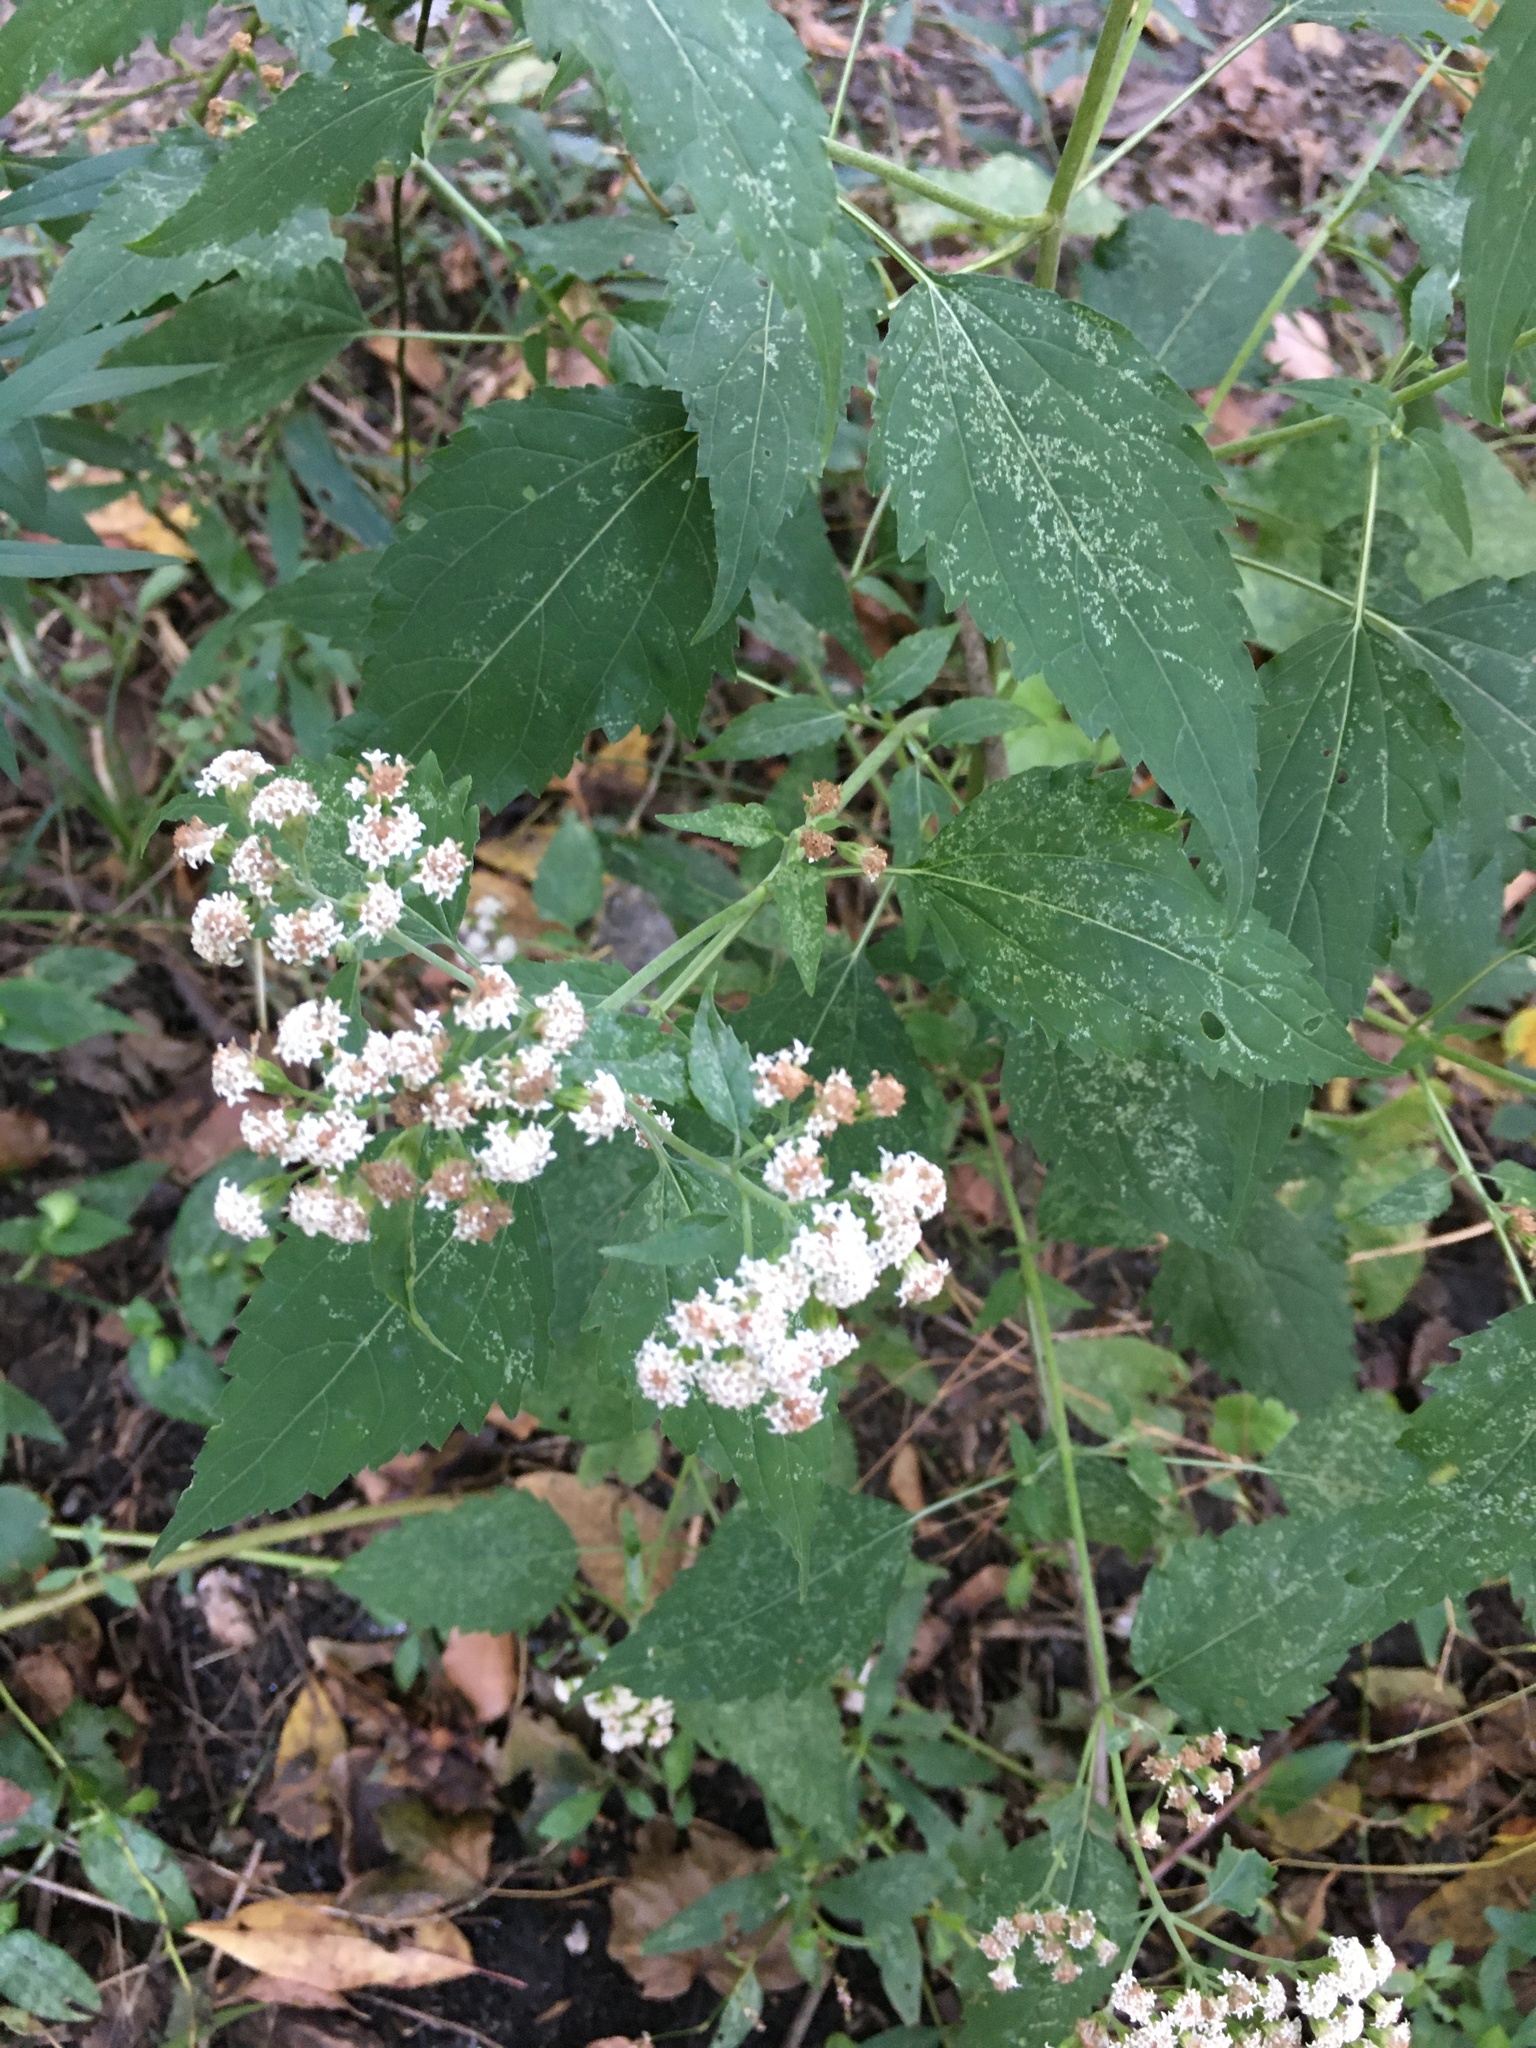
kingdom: Plantae
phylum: Tracheophyta
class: Magnoliopsida
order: Asterales
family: Asteraceae
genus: Ageratina
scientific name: Ageratina altissima
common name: White snakeroot
